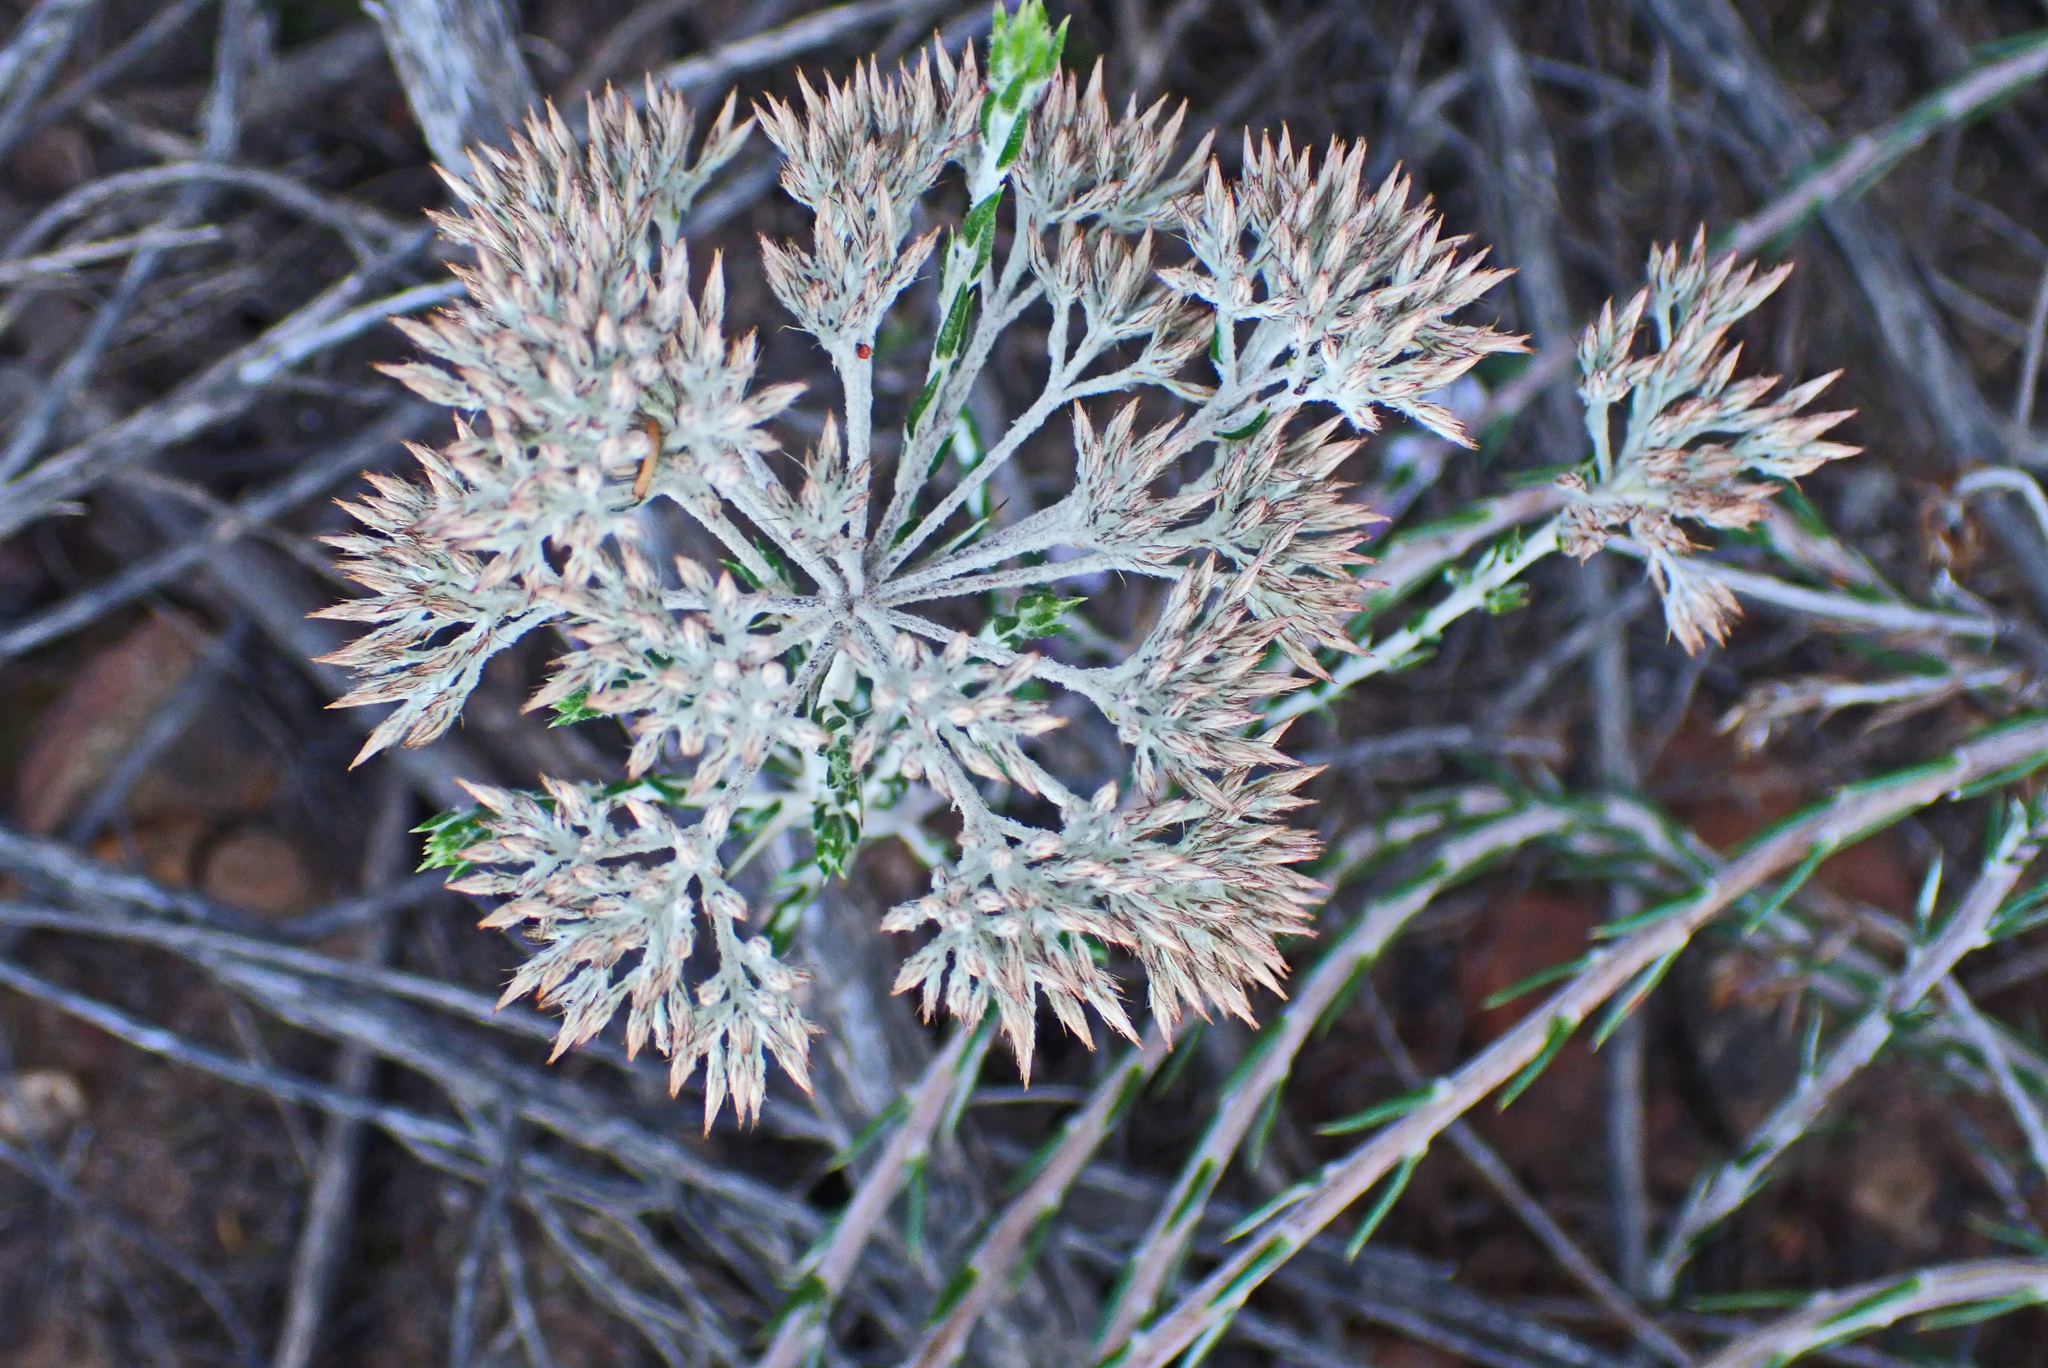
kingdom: Plantae
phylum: Tracheophyta
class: Magnoliopsida
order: Asterales
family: Asteraceae
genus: Metalasia
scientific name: Metalasia pungens
